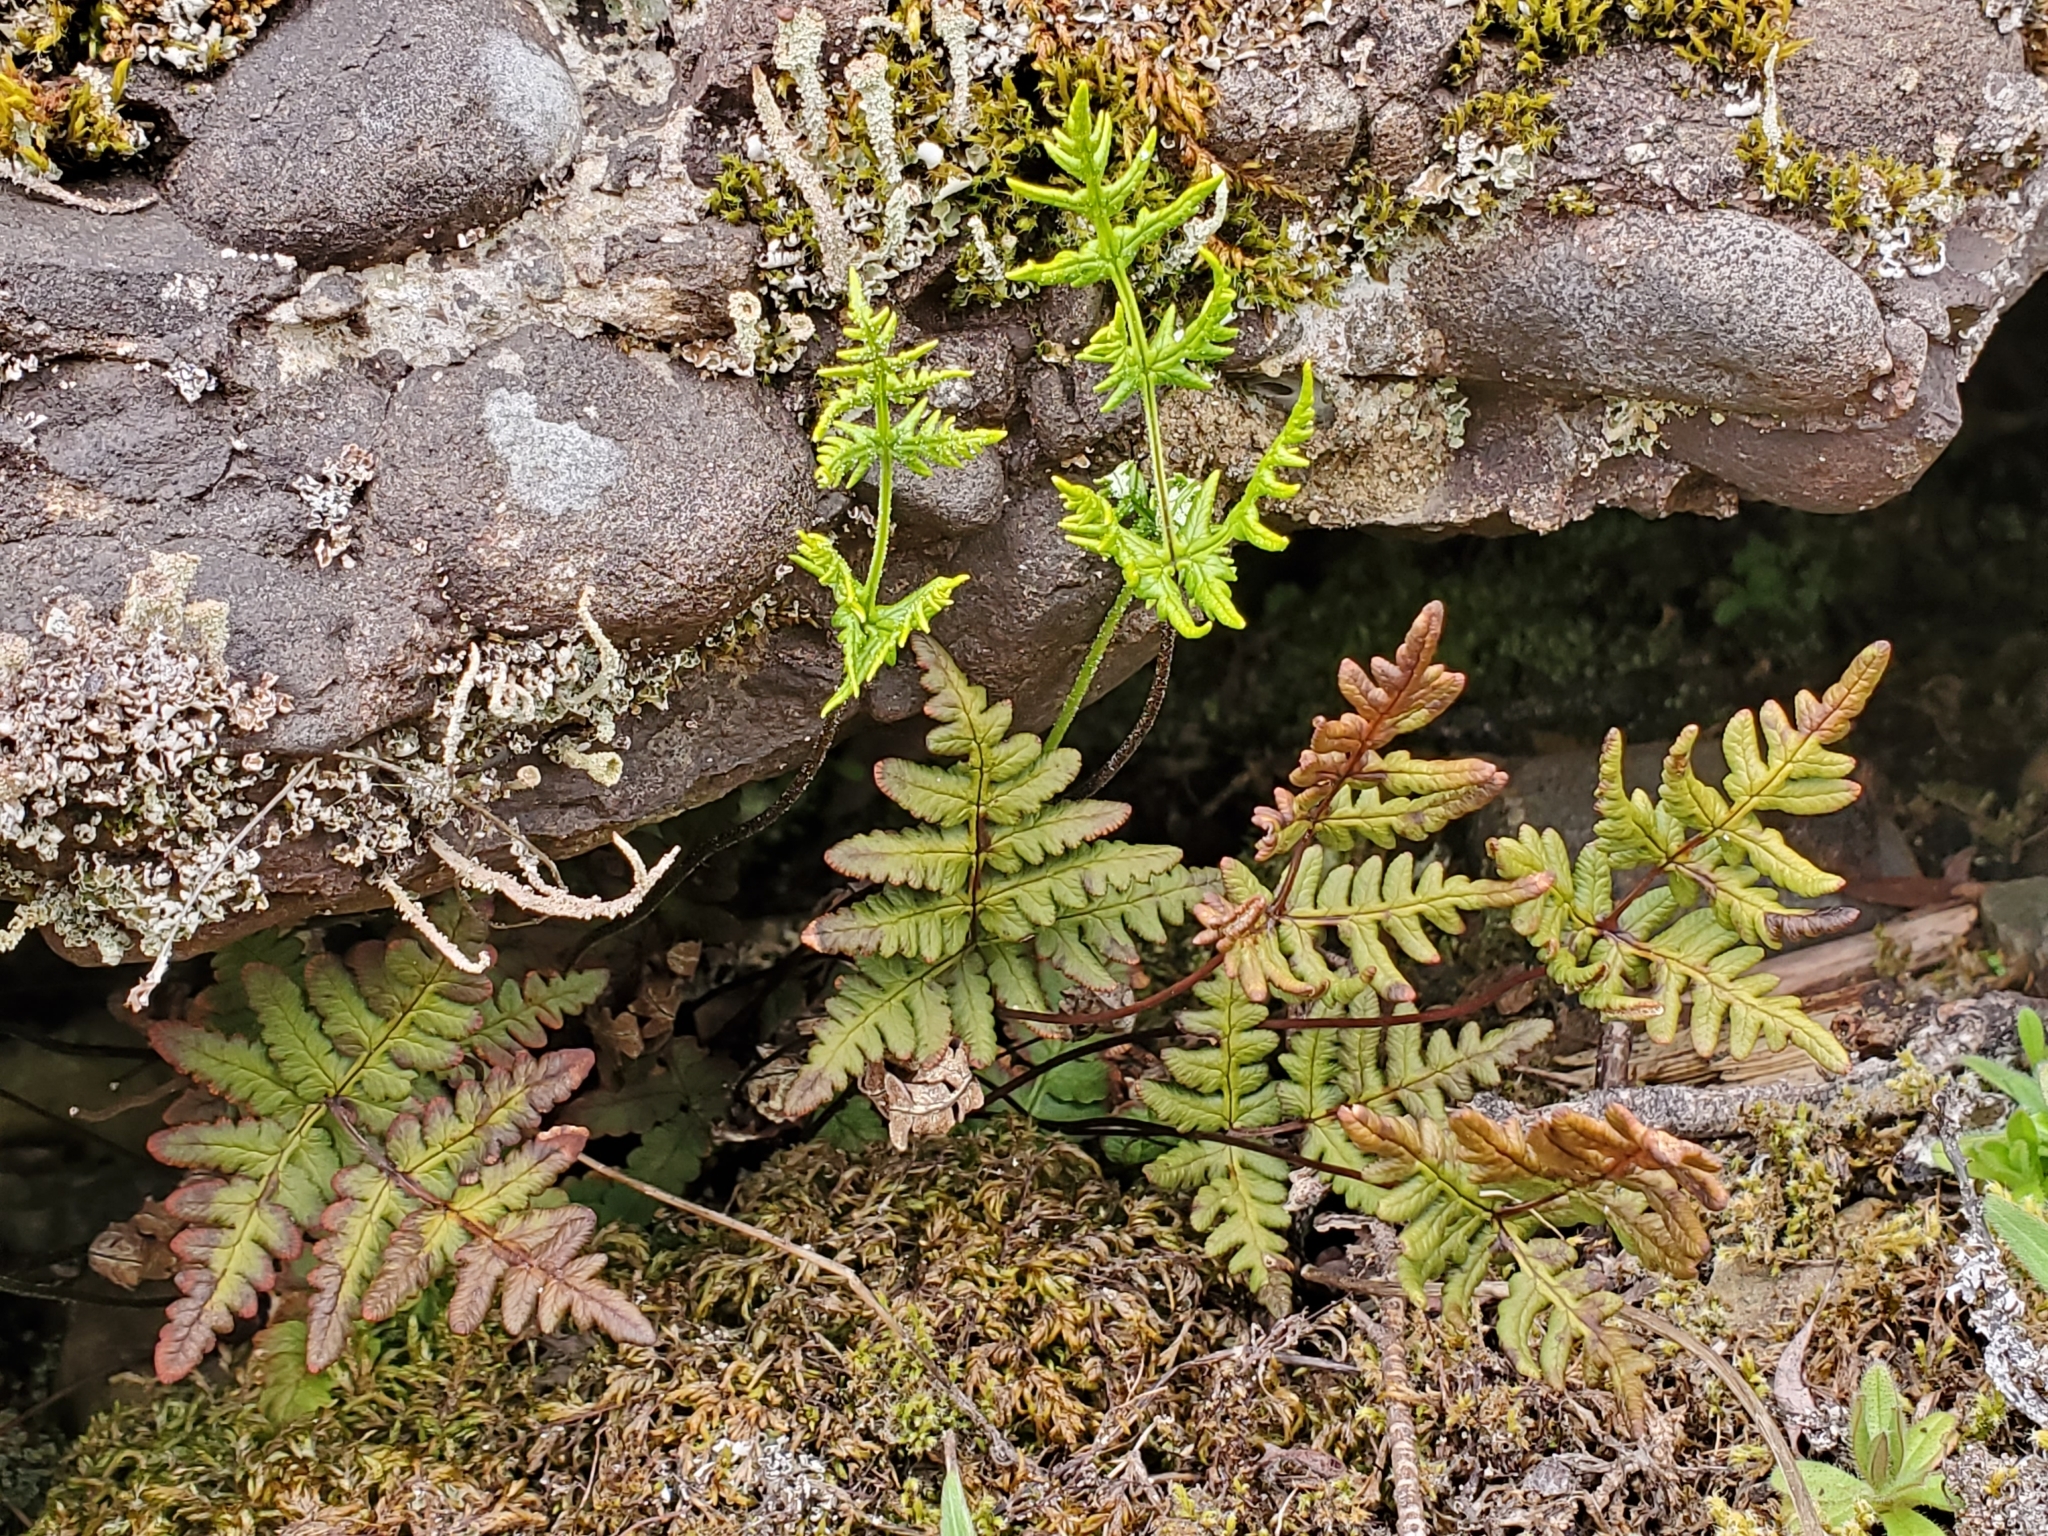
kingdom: Plantae
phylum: Tracheophyta
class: Polypodiopsida
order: Polypodiales
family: Pteridaceae
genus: Pentagramma
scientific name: Pentagramma triangularis
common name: Gold fern
